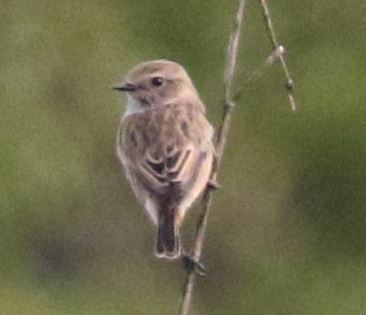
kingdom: Animalia
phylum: Chordata
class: Aves
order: Passeriformes
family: Muscicapidae
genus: Saxicola
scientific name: Saxicola rubicola
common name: European stonechat
